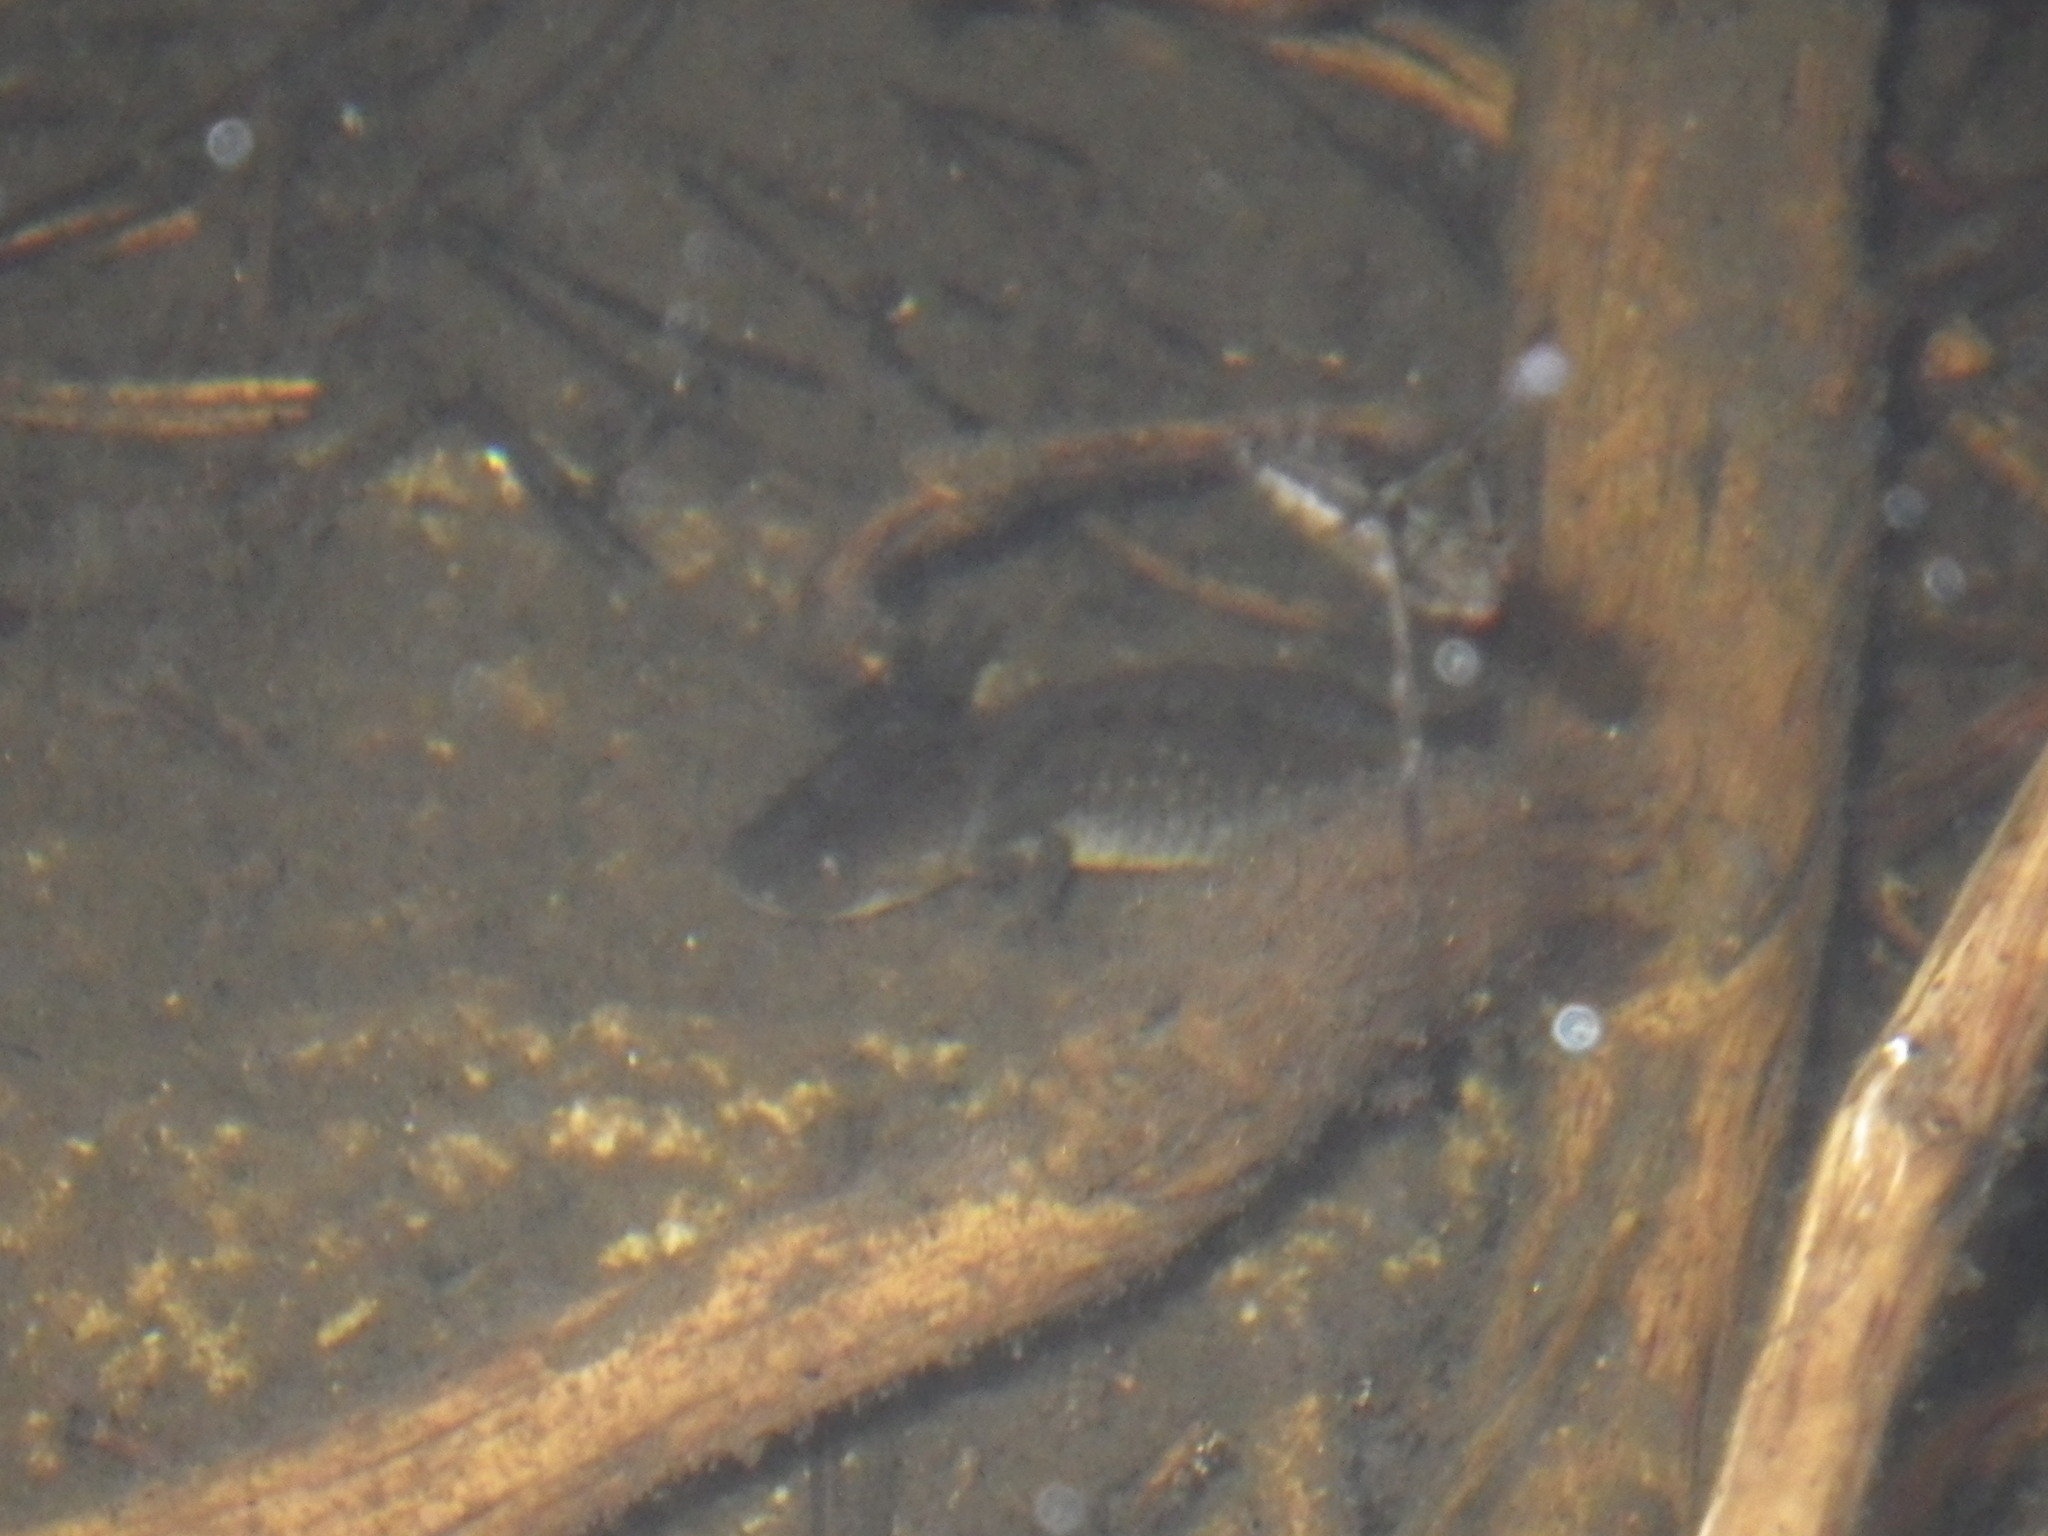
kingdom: Animalia
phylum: Chordata
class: Amphibia
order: Caudata
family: Ambystomatidae
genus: Ambystoma
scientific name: Ambystoma macrodactylum
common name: Long-toed salamander
